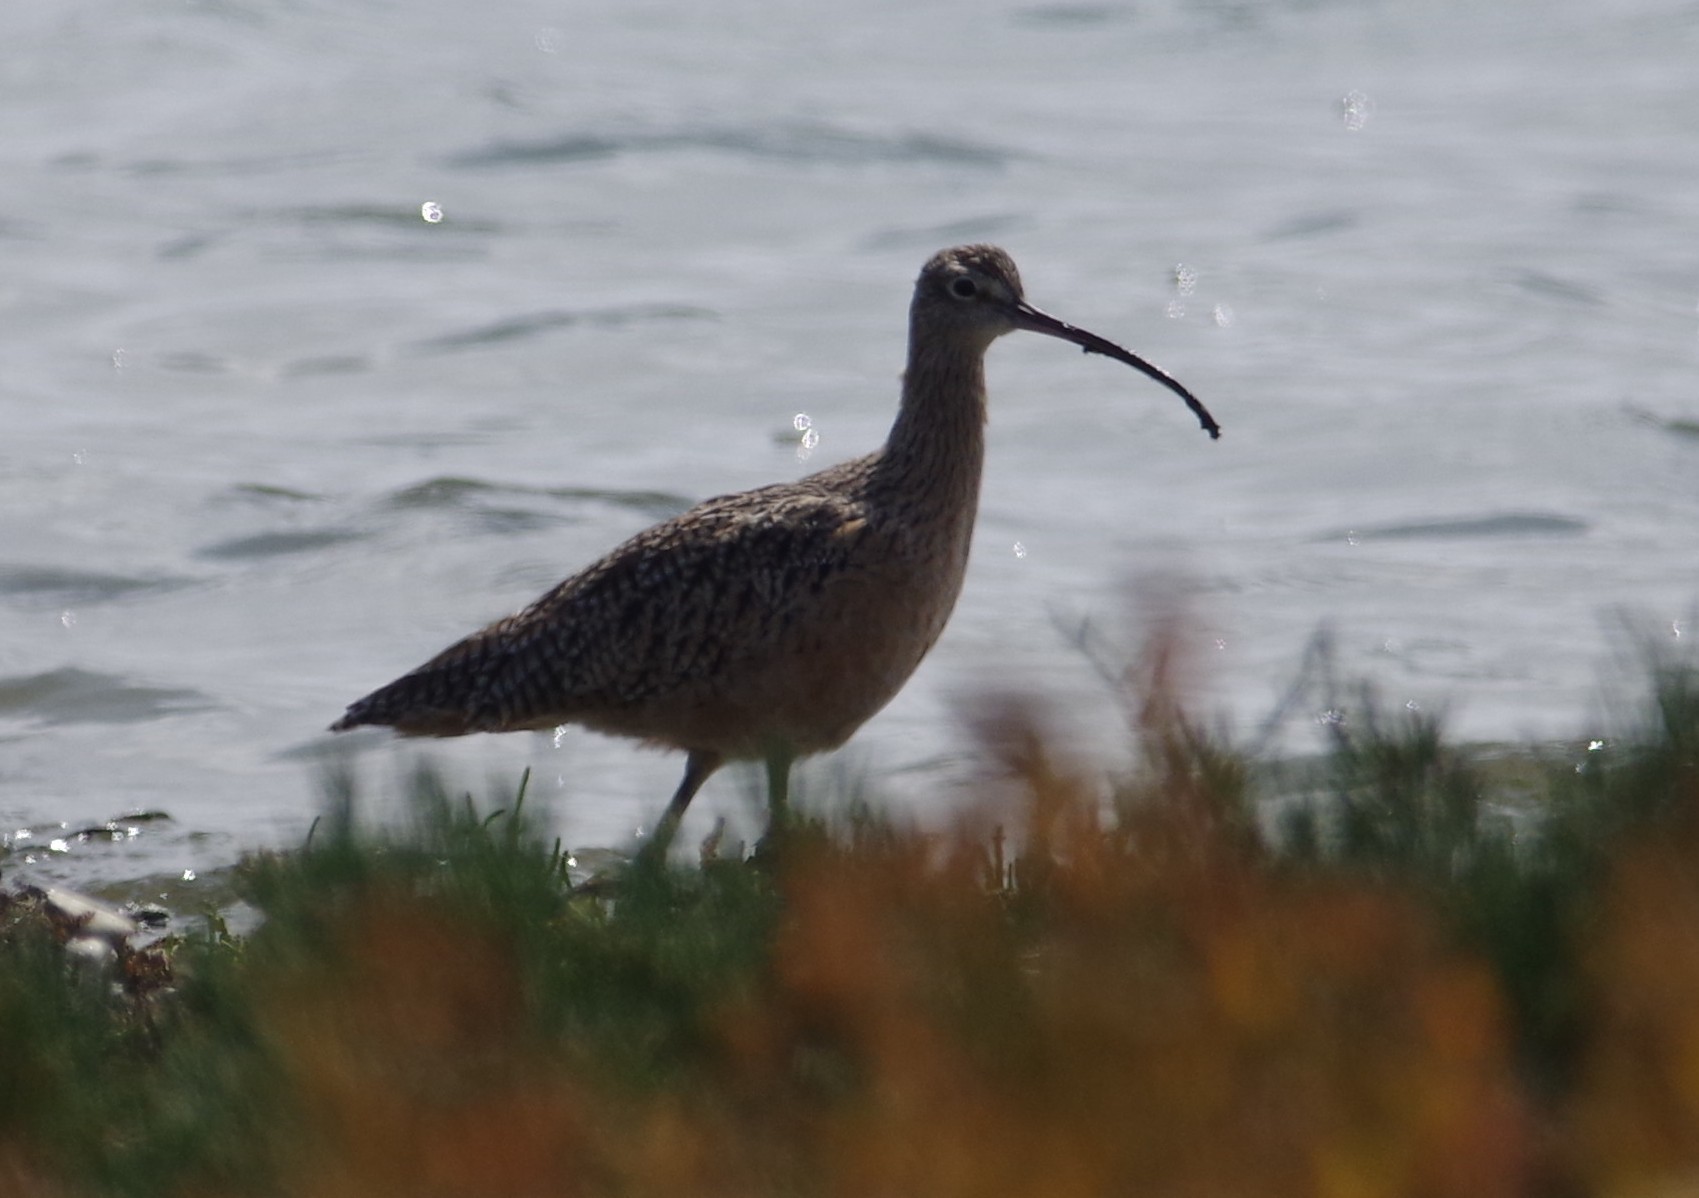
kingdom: Animalia
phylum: Chordata
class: Aves
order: Charadriiformes
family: Scolopacidae
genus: Numenius
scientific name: Numenius americanus
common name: Long-billed curlew
